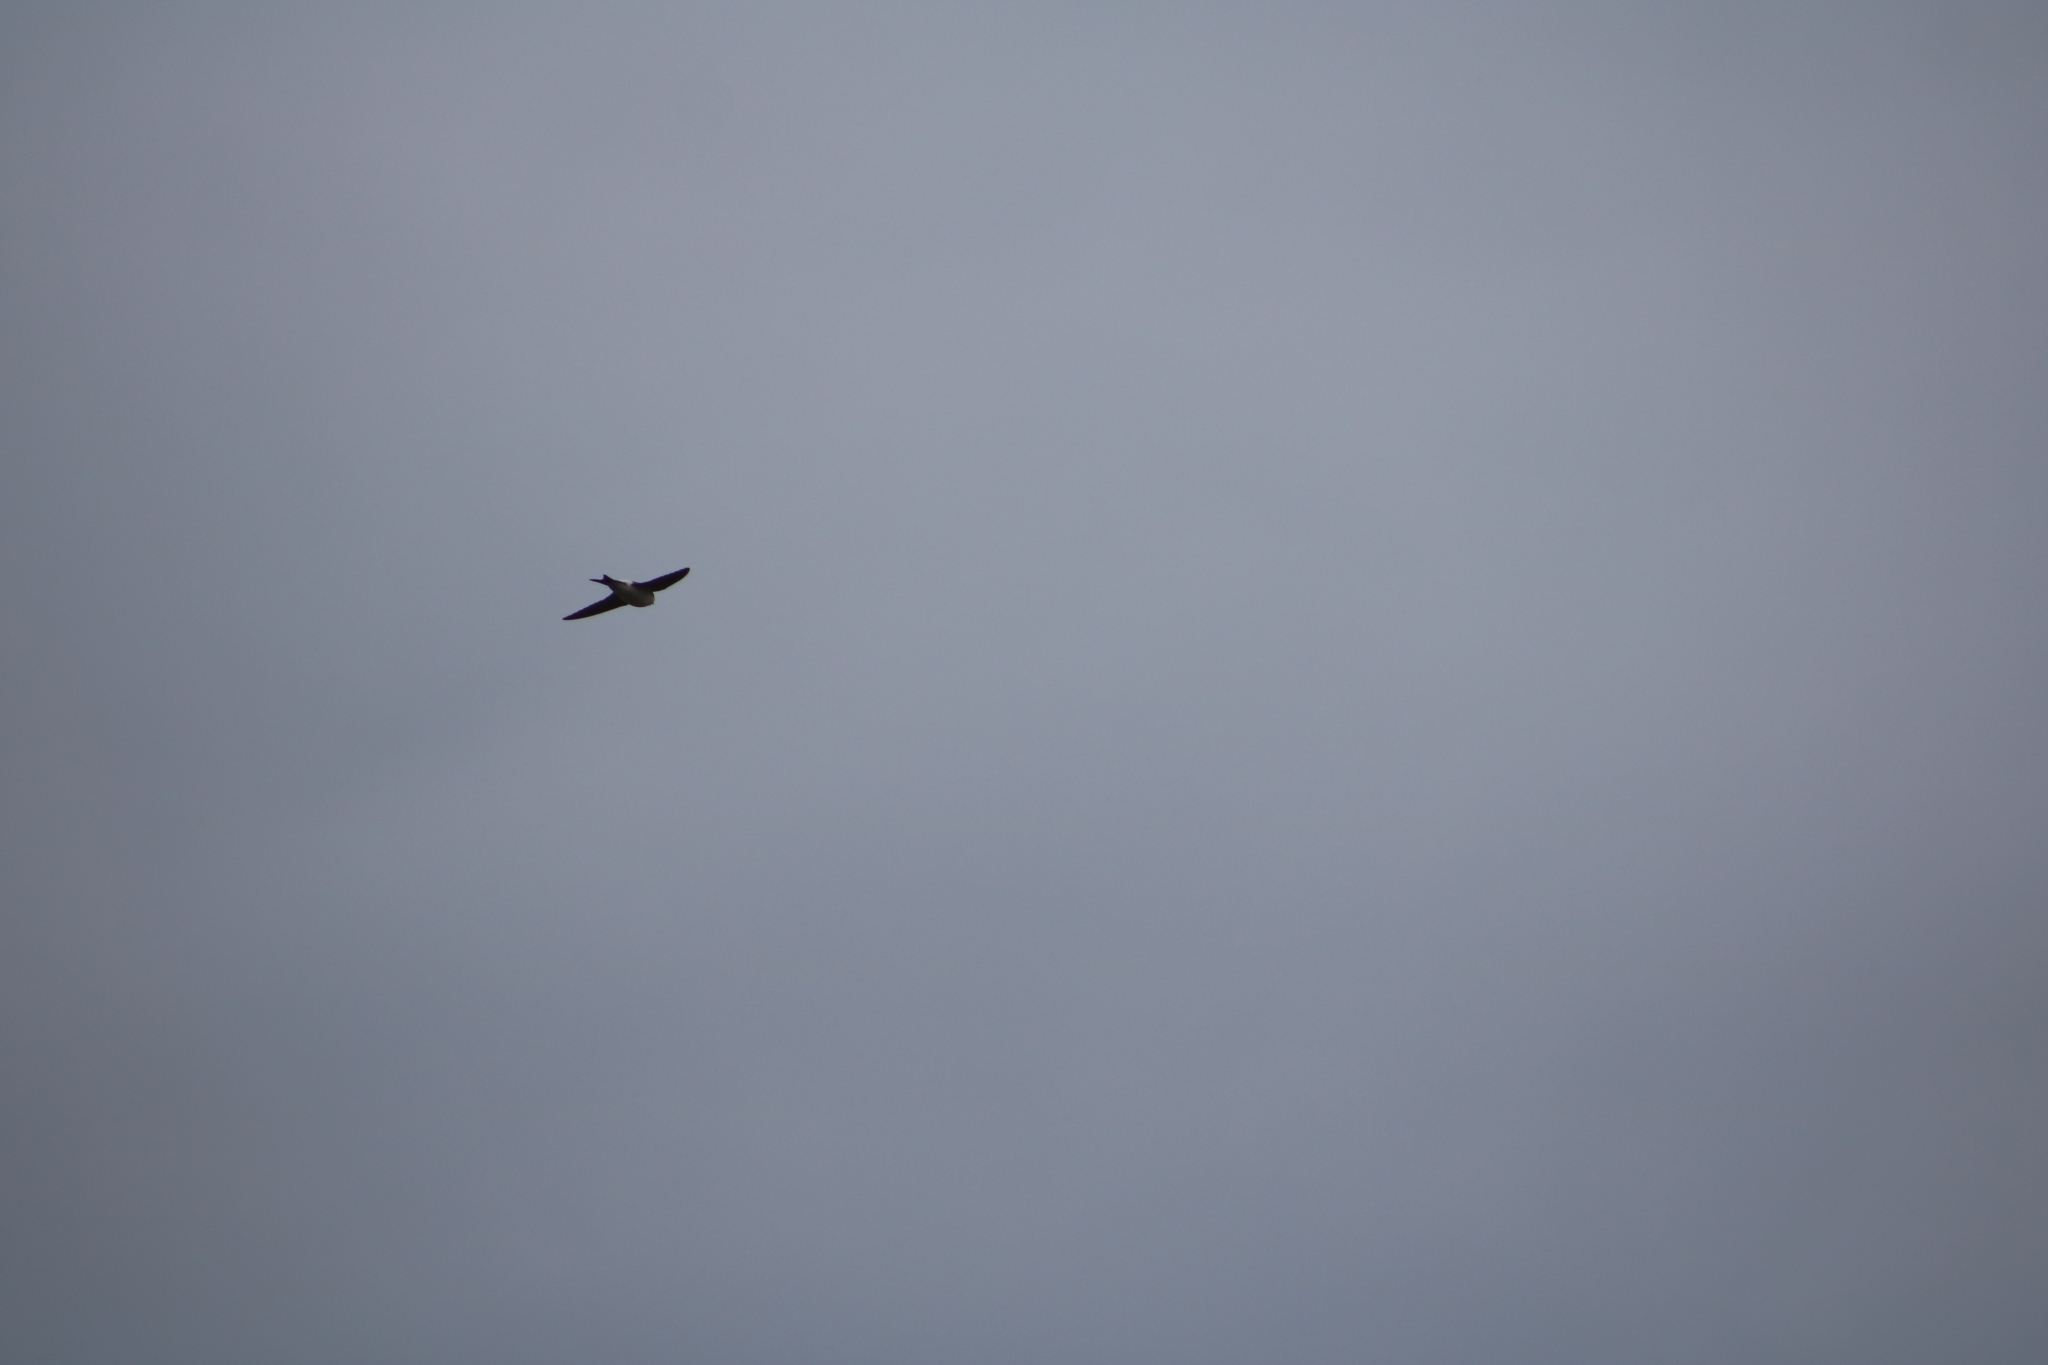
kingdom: Animalia
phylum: Chordata
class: Aves
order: Passeriformes
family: Hirundinidae
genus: Delichon
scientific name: Delichon urbicum
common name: Common house martin
